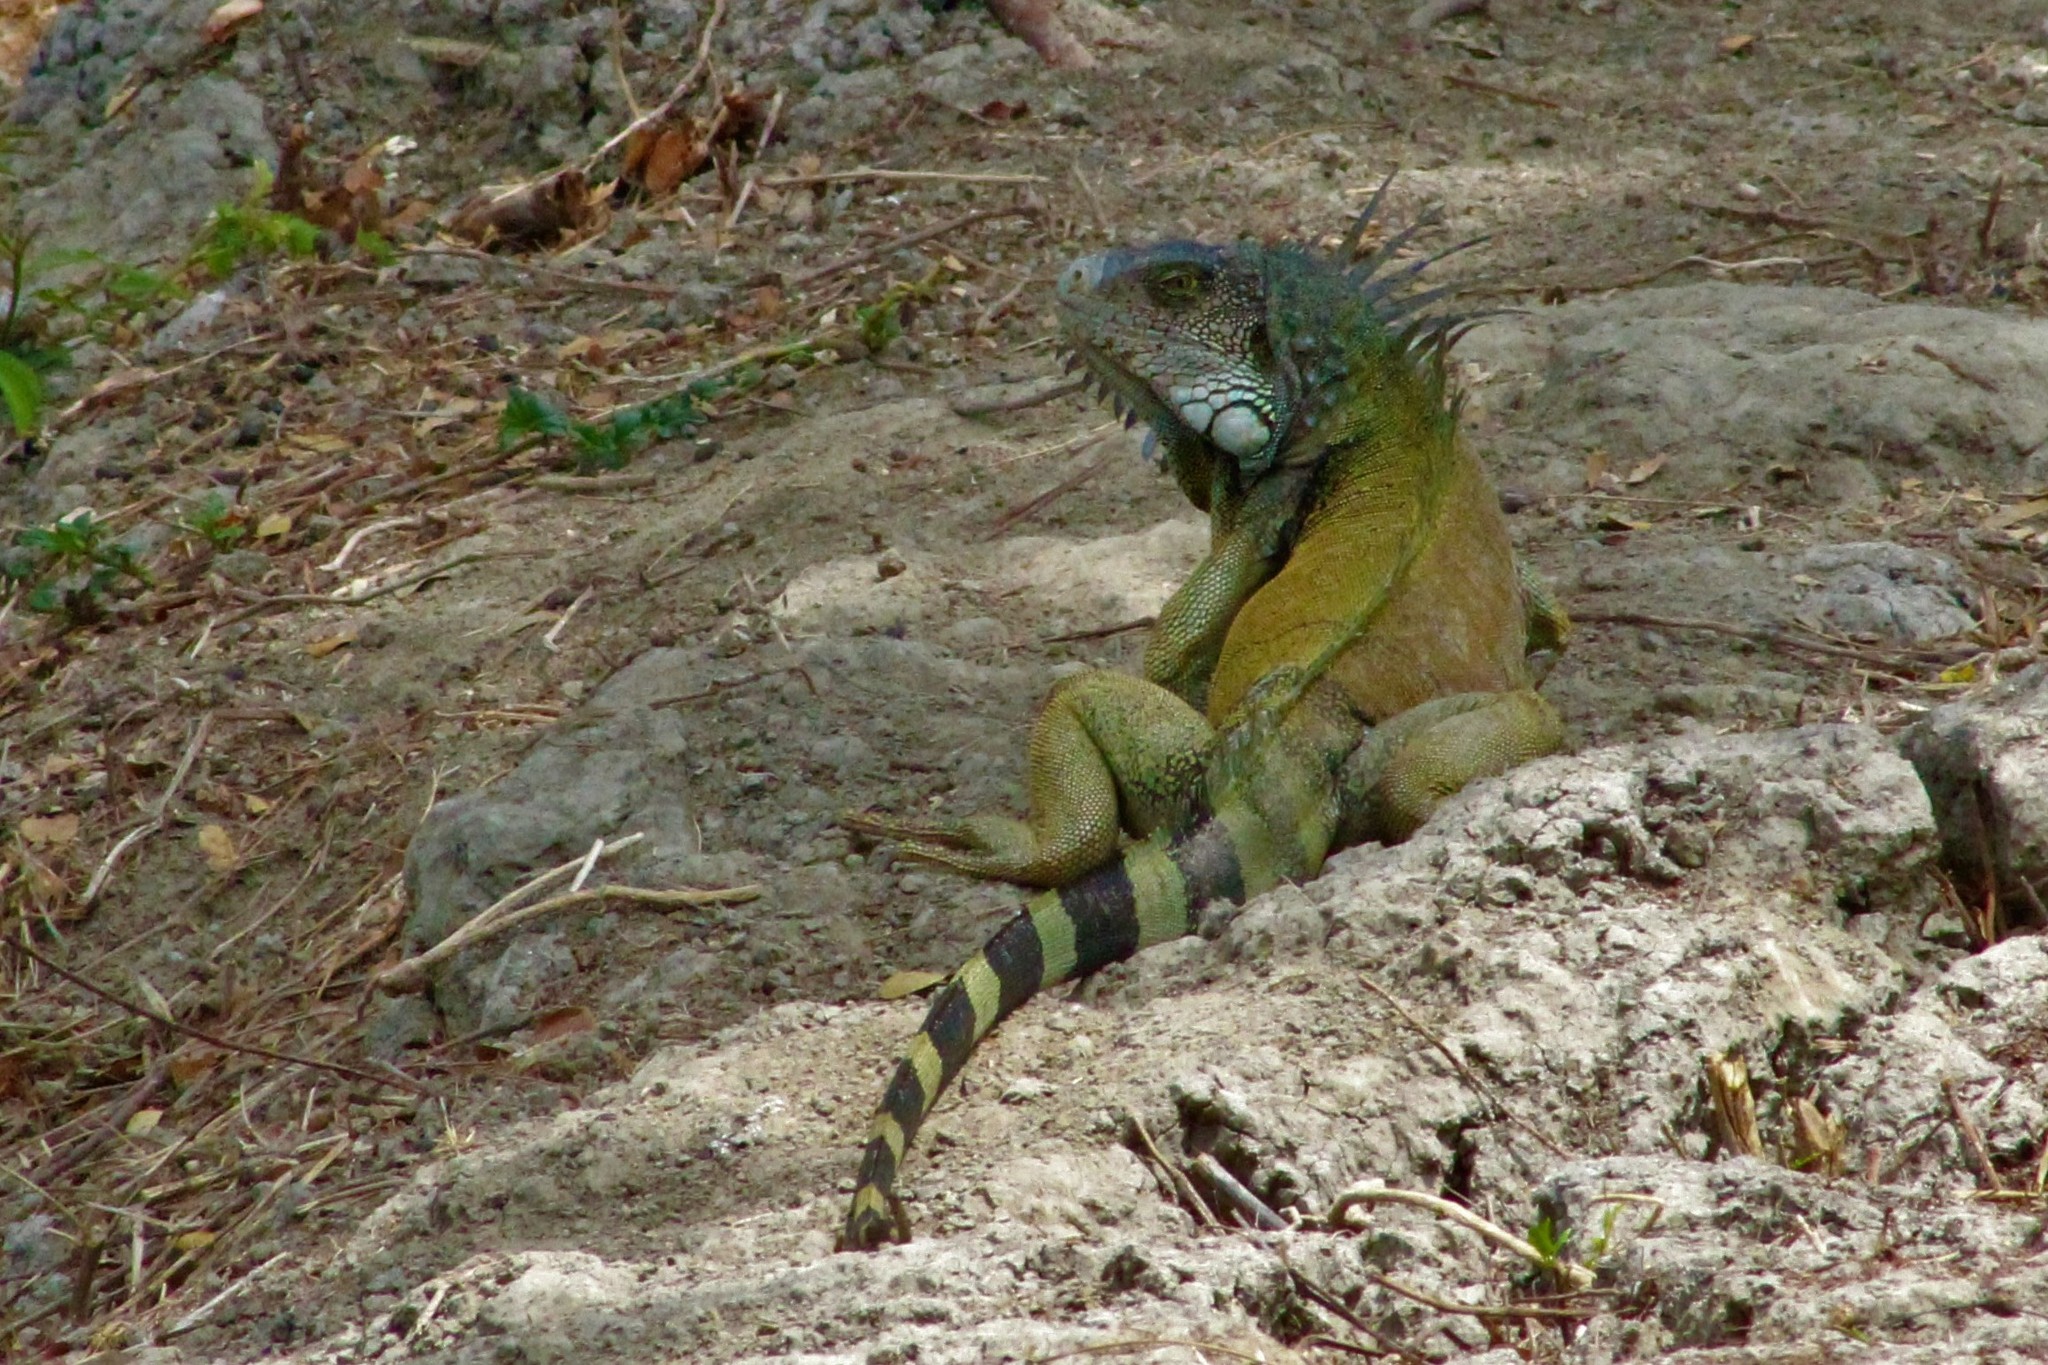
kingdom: Animalia
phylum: Chordata
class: Squamata
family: Iguanidae
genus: Iguana
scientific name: Iguana iguana
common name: Green iguana
